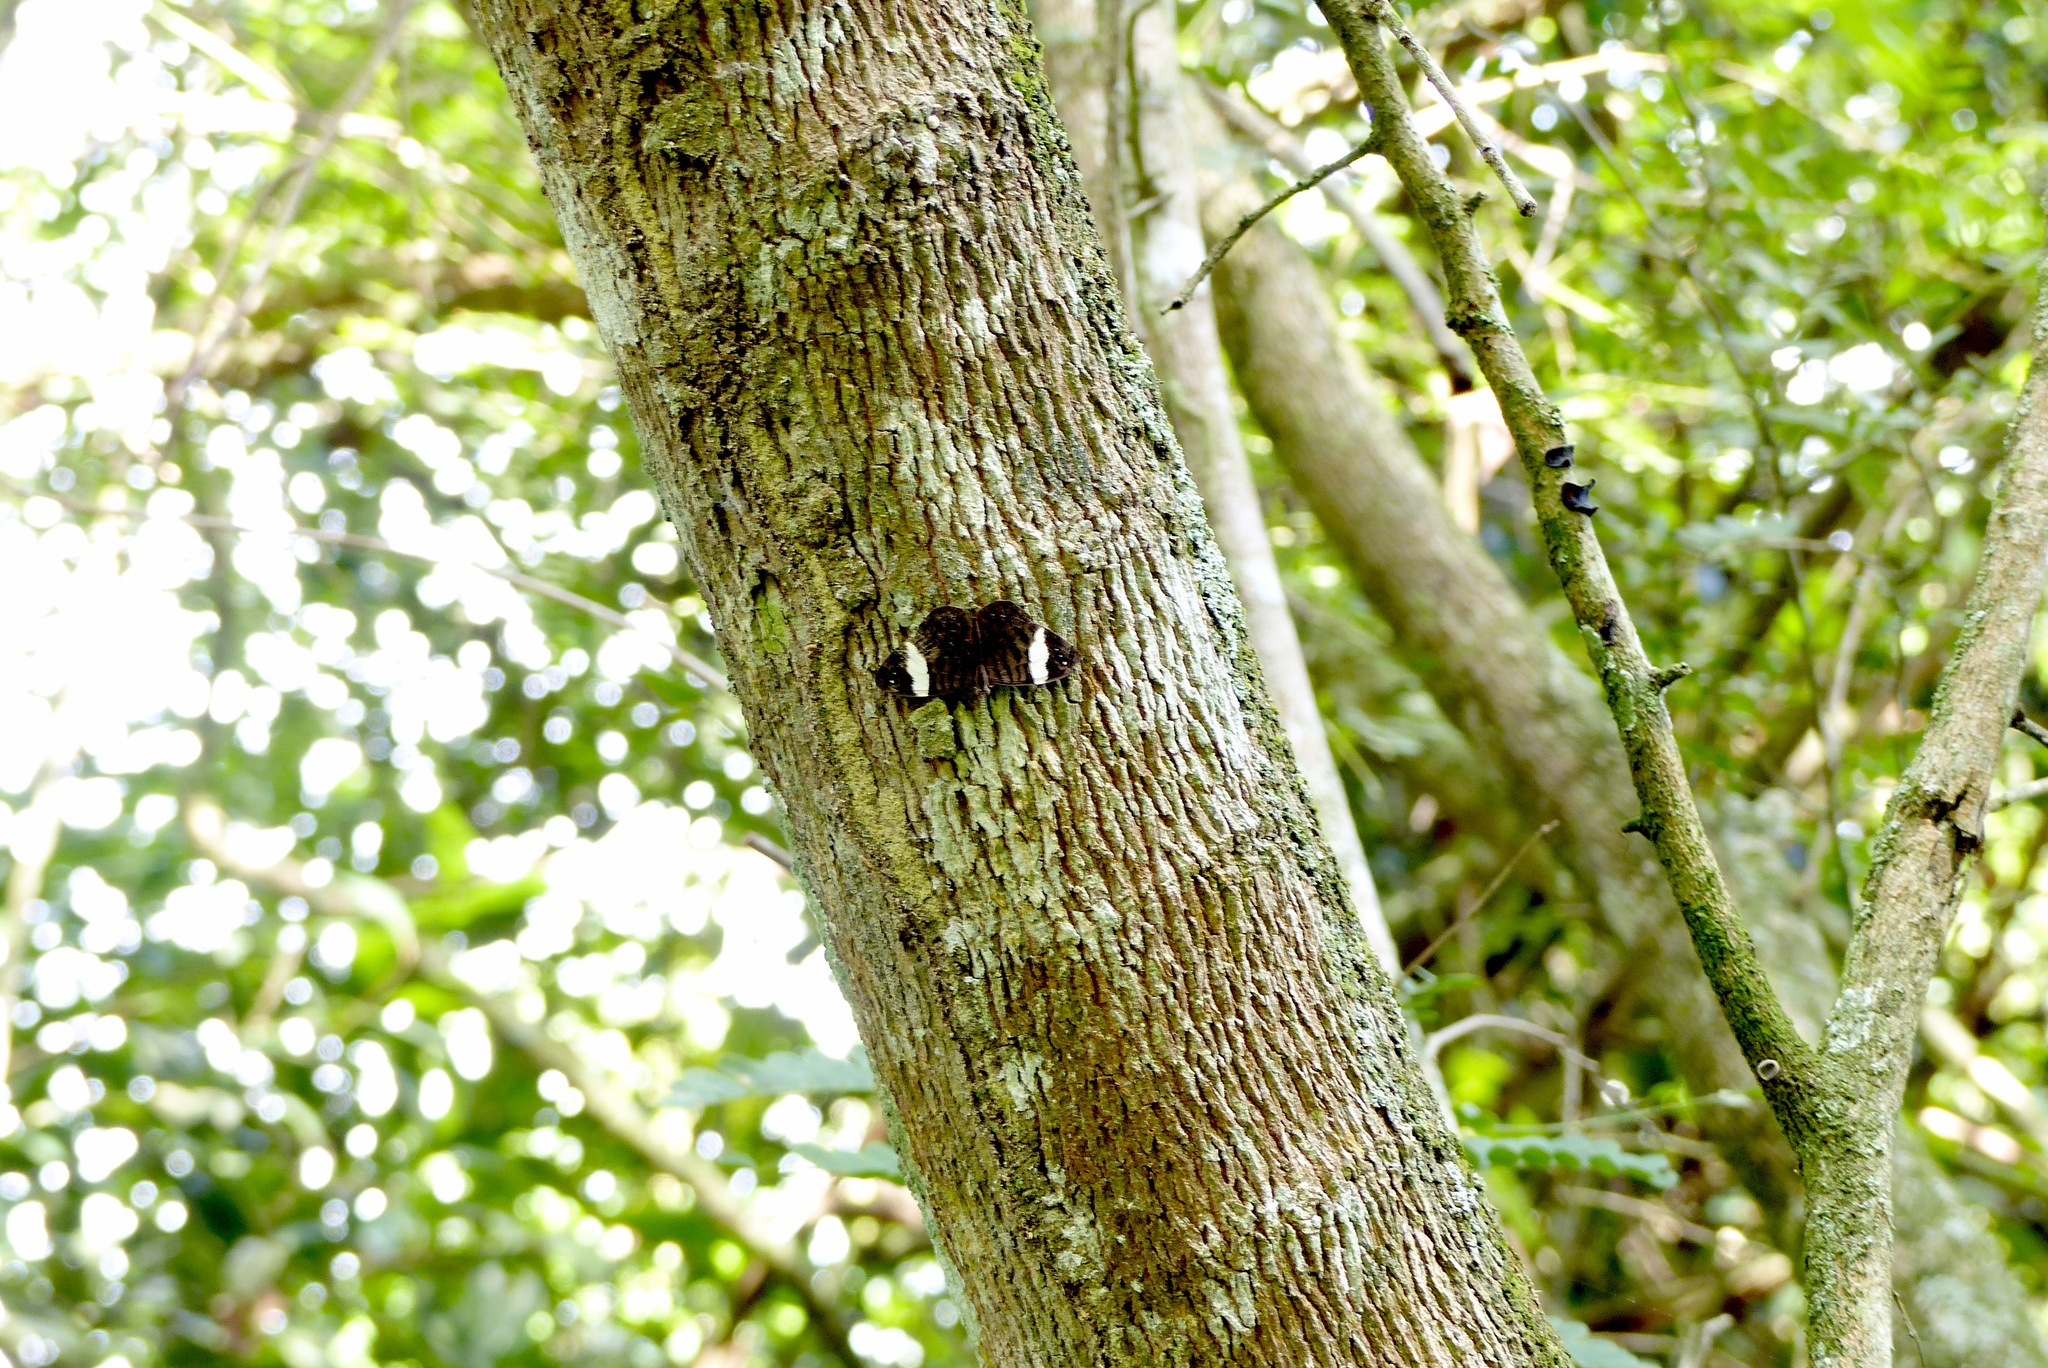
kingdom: Animalia
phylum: Arthropoda
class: Insecta
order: Lepidoptera
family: Nymphalidae
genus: Ectima
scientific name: Ectima thecla
